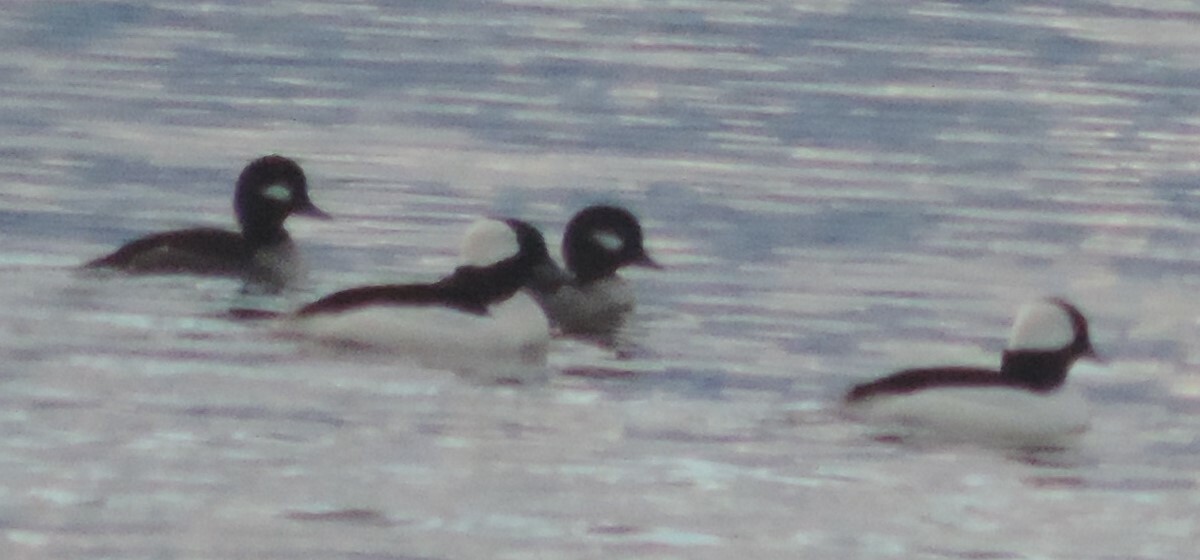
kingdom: Animalia
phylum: Chordata
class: Aves
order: Anseriformes
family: Anatidae
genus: Bucephala
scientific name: Bucephala albeola
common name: Bufflehead
